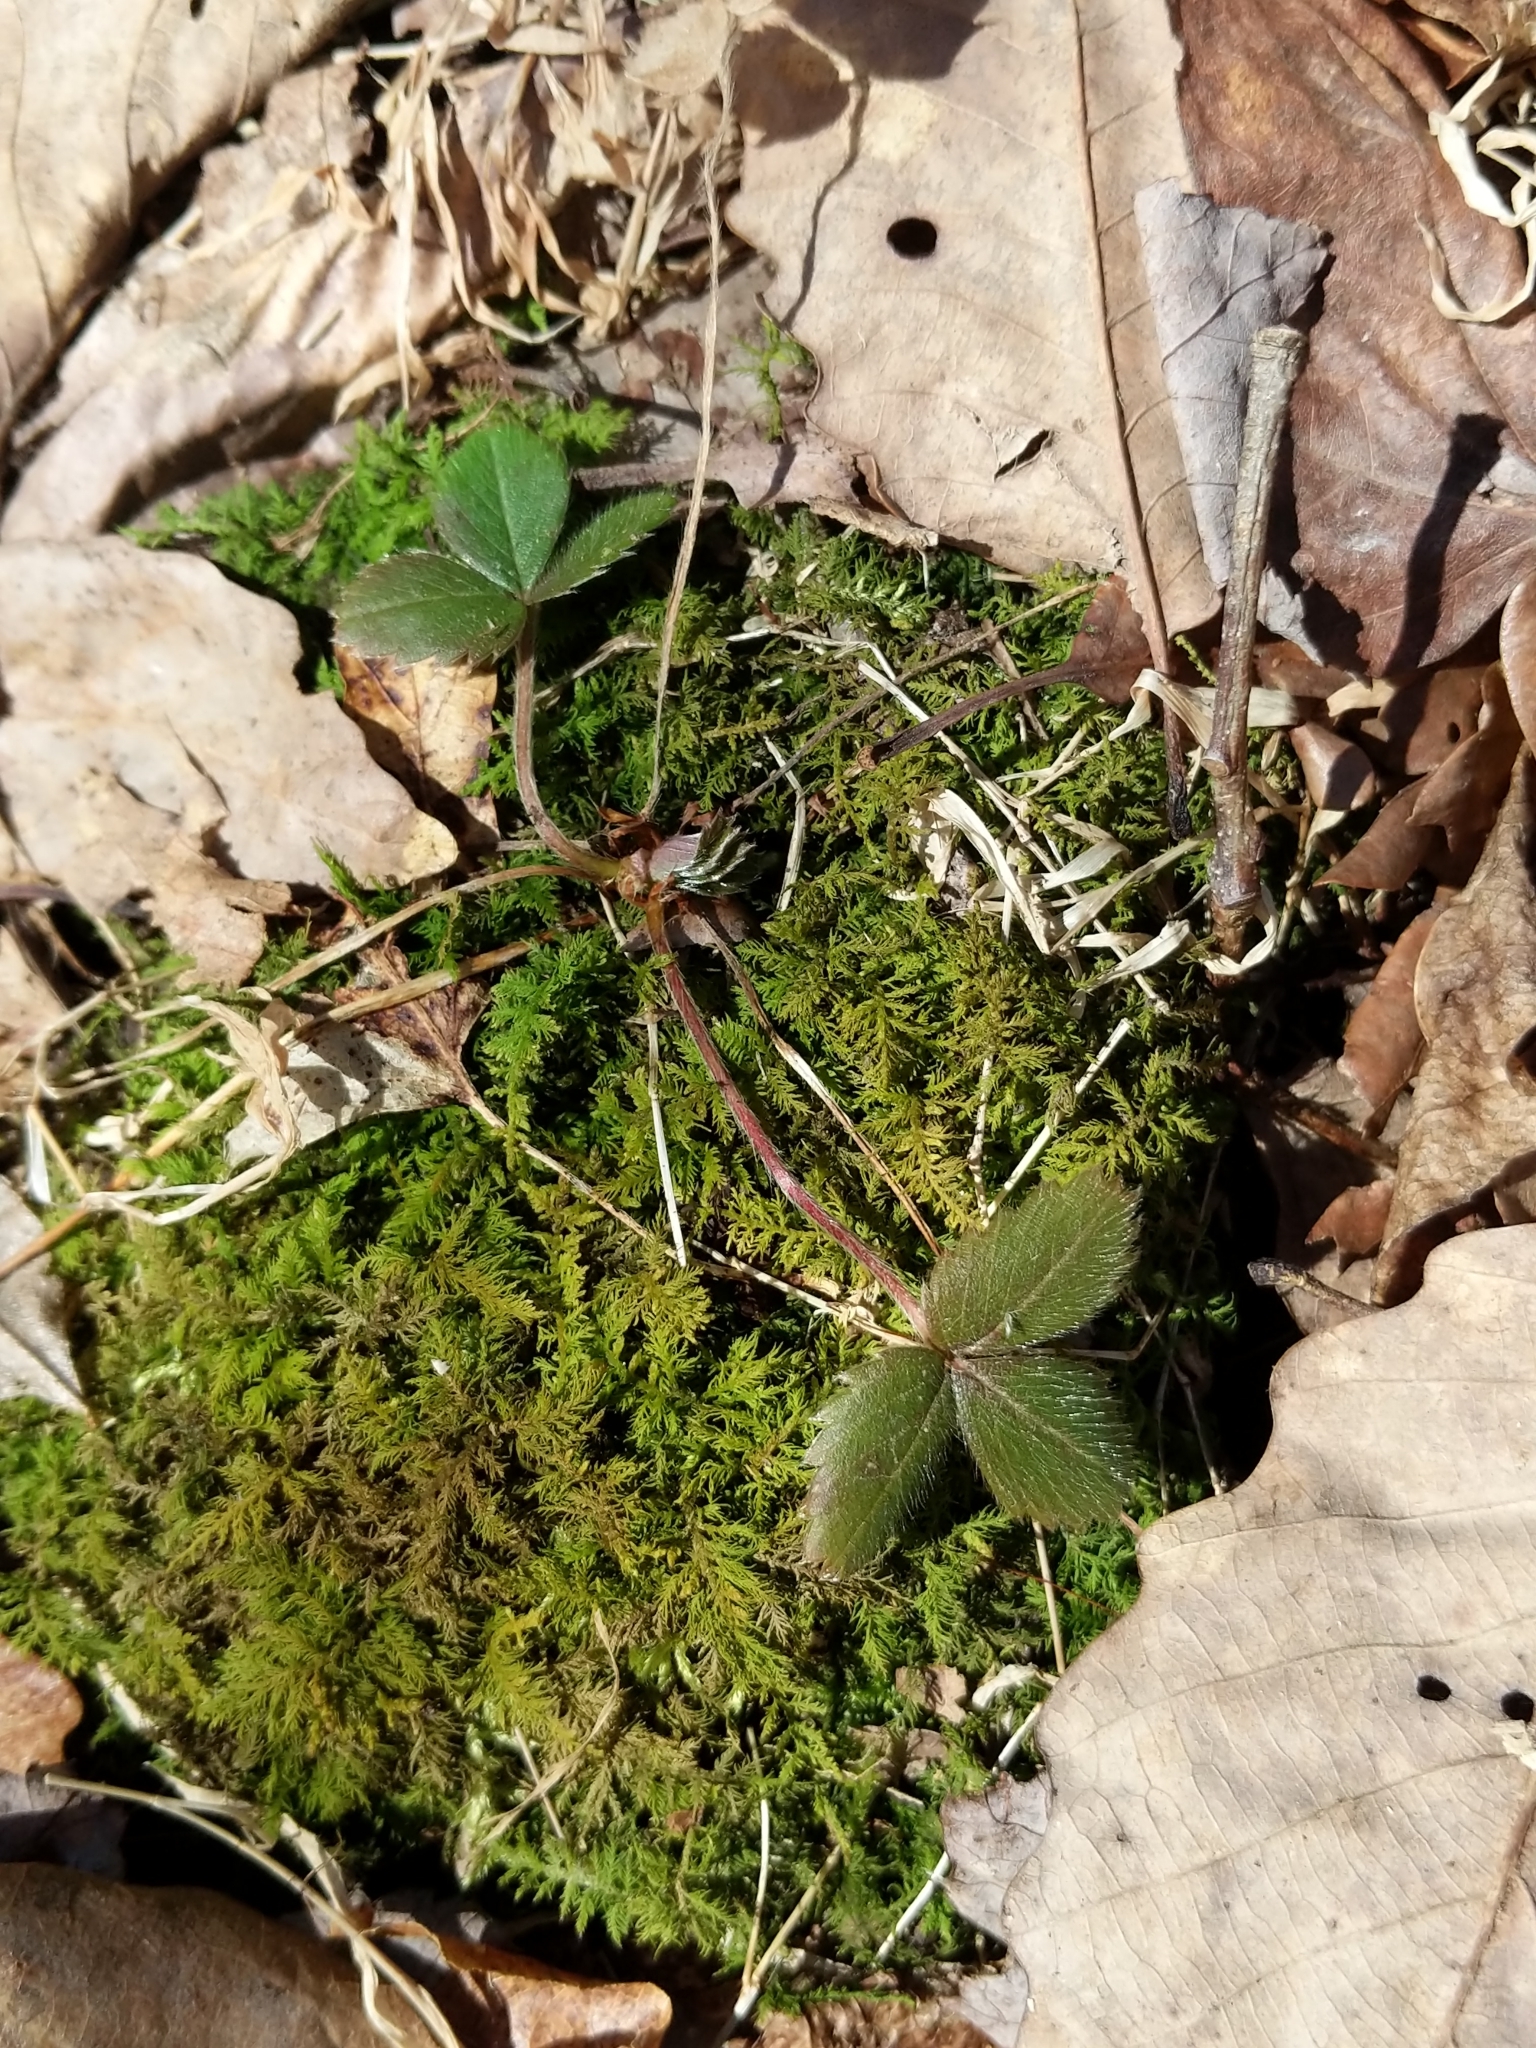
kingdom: Plantae
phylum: Tracheophyta
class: Magnoliopsida
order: Rosales
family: Rosaceae
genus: Fragaria
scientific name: Fragaria virginiana
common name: Thickleaved wild strawberry
